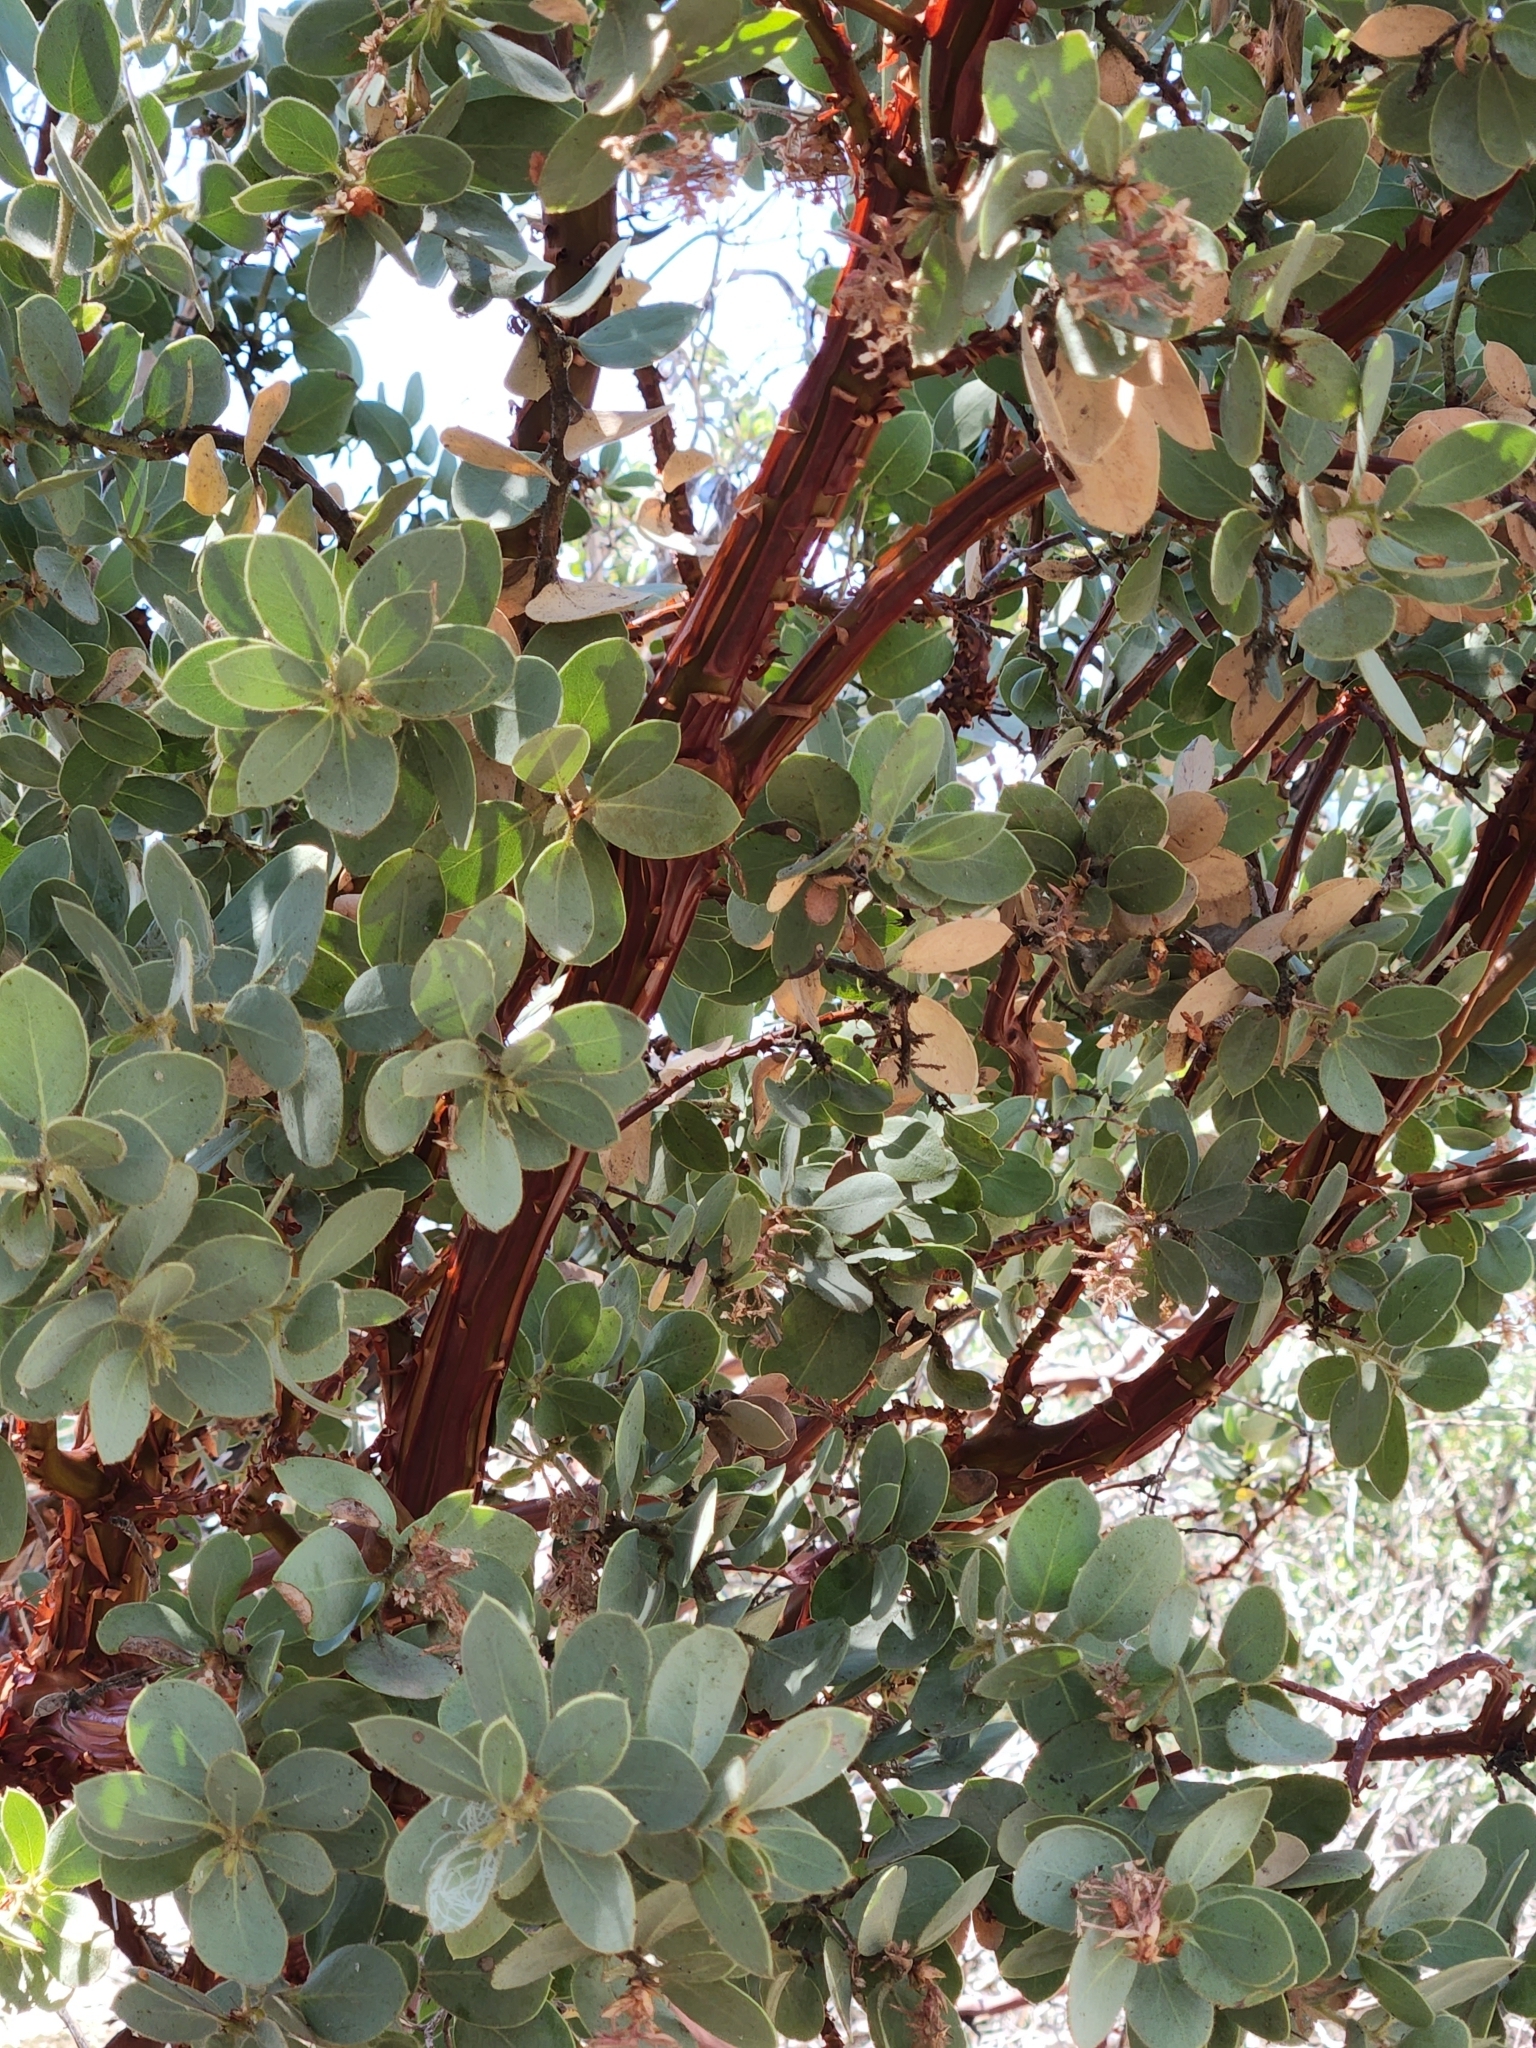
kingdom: Plantae
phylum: Tracheophyta
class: Magnoliopsida
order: Ericales
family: Ericaceae
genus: Arctostaphylos
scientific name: Arctostaphylos pringlei
